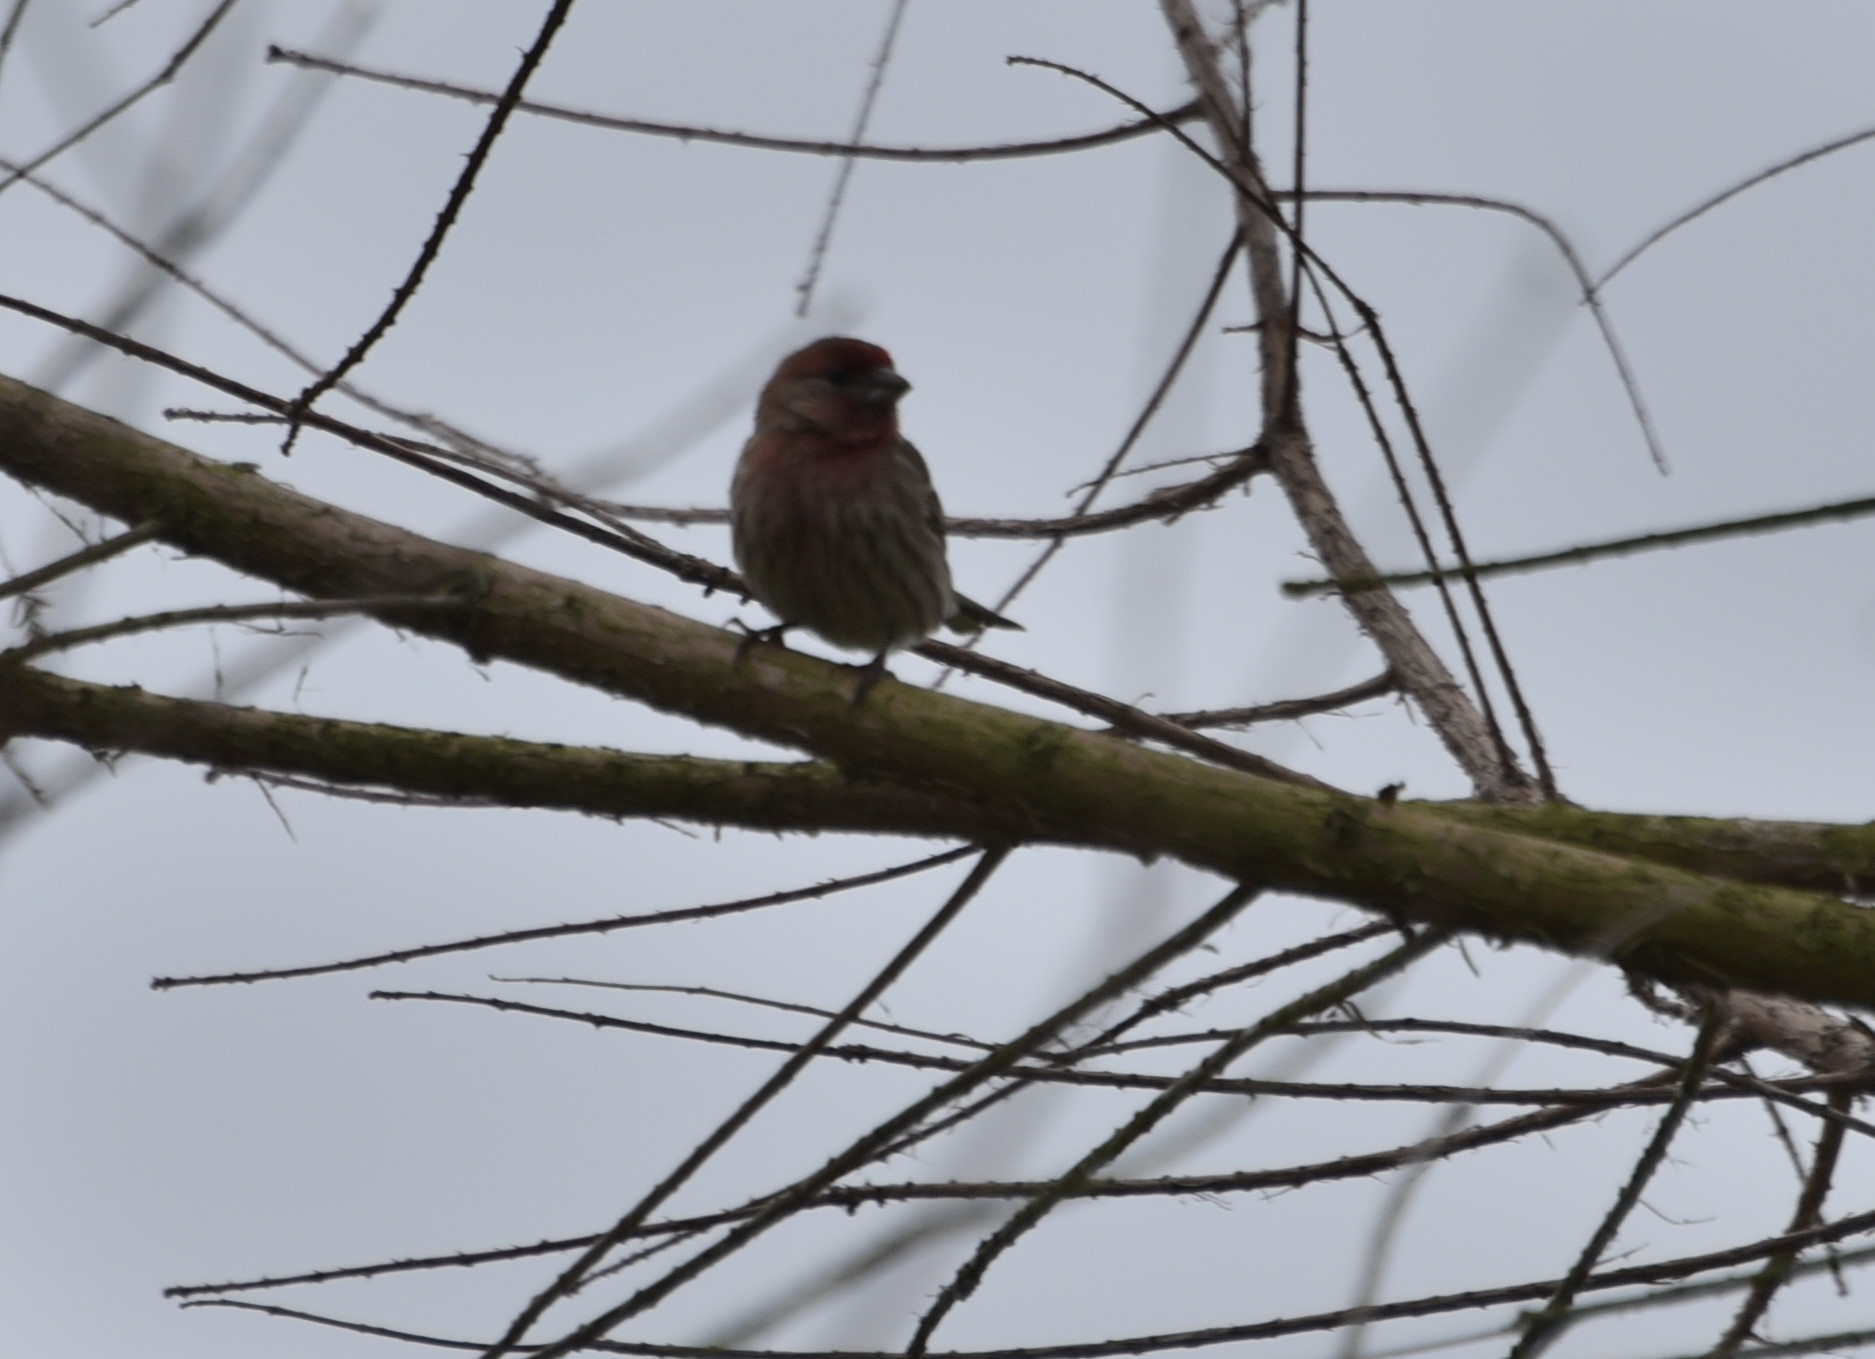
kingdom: Animalia
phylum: Chordata
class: Aves
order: Passeriformes
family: Fringillidae
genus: Haemorhous
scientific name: Haemorhous mexicanus
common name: House finch
